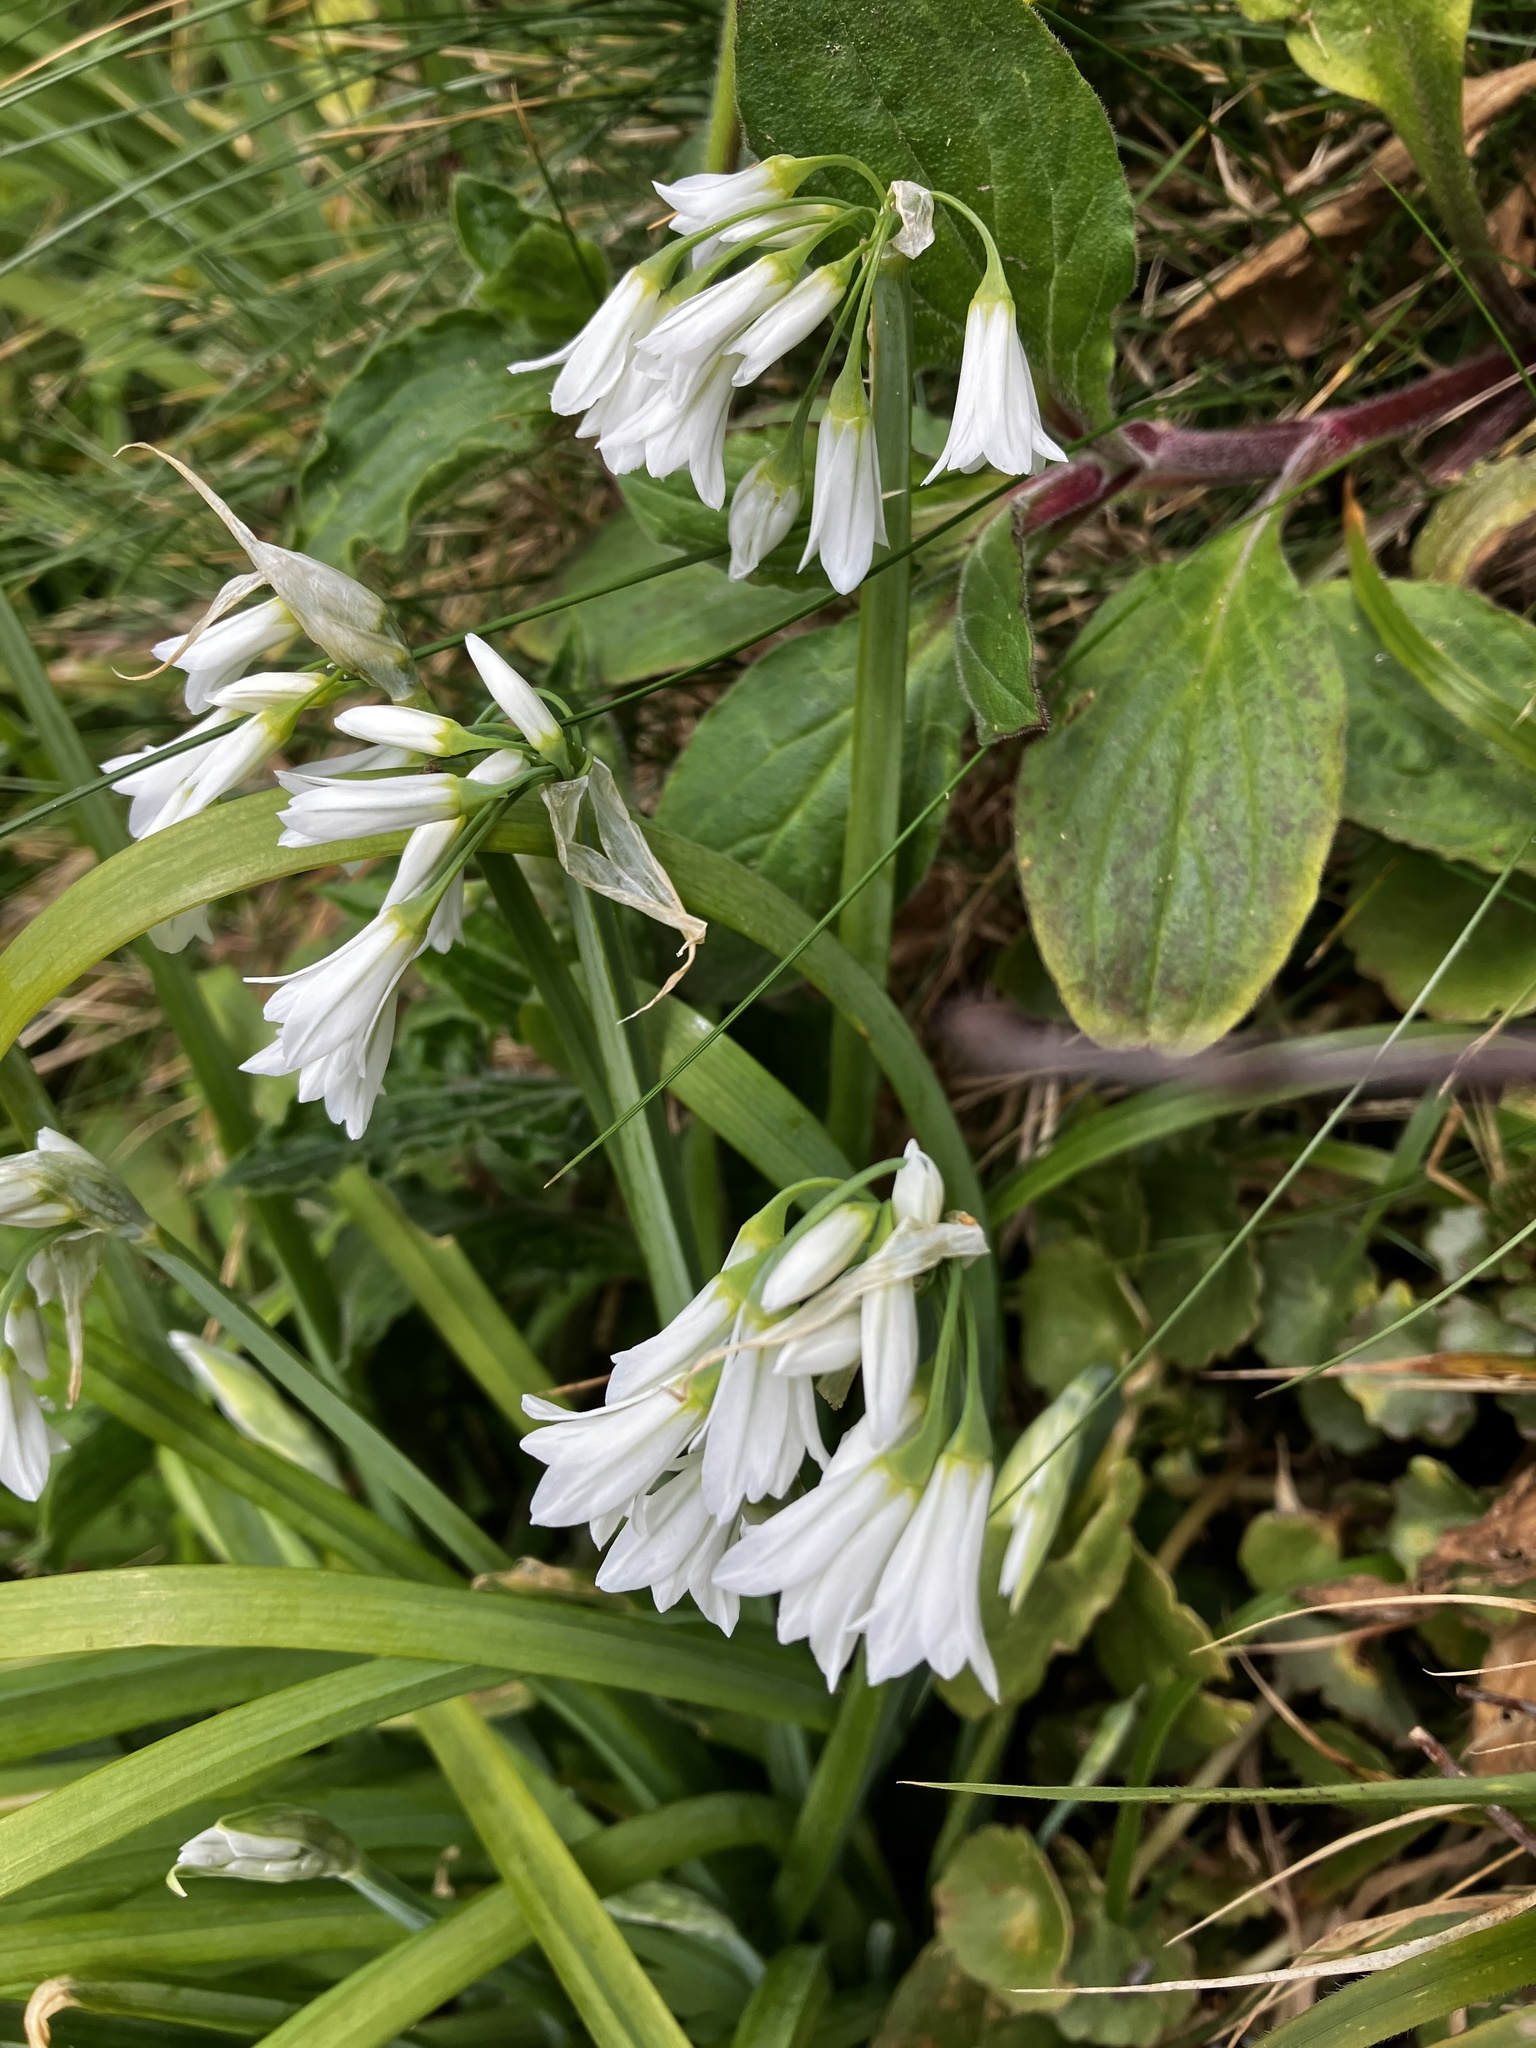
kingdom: Plantae
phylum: Tracheophyta
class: Liliopsida
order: Asparagales
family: Amaryllidaceae
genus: Allium
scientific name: Allium triquetrum
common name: Three-cornered garlic
